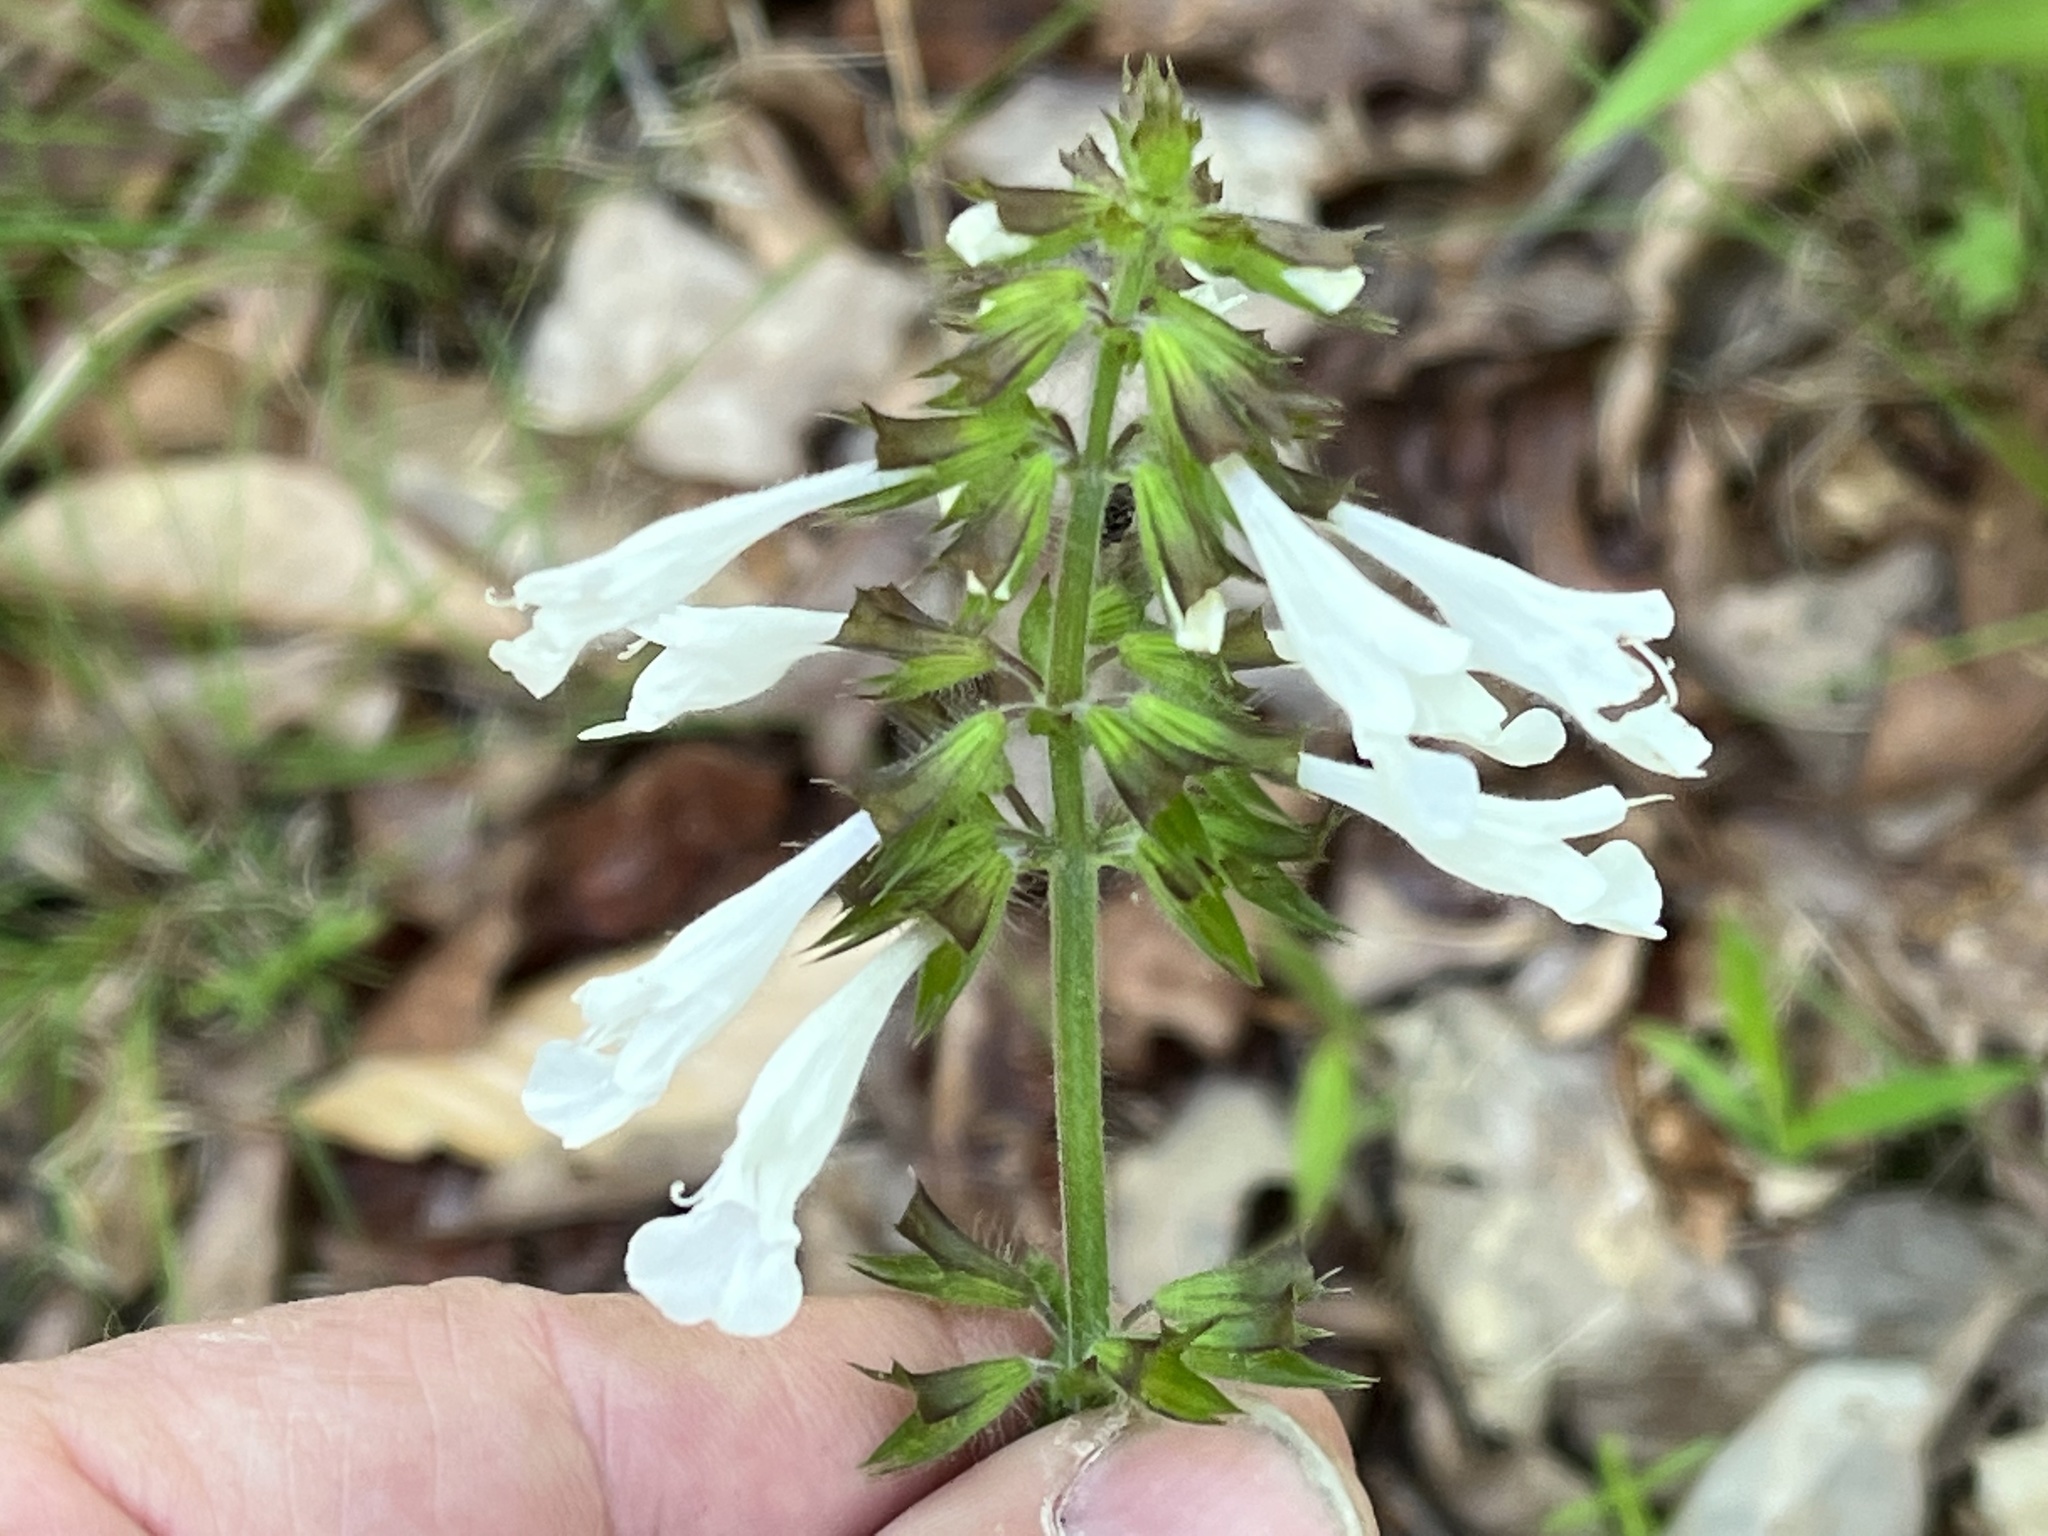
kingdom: Plantae
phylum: Tracheophyta
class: Magnoliopsida
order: Lamiales
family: Lamiaceae
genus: Salvia
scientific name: Salvia lyrata
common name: Cancerweed
